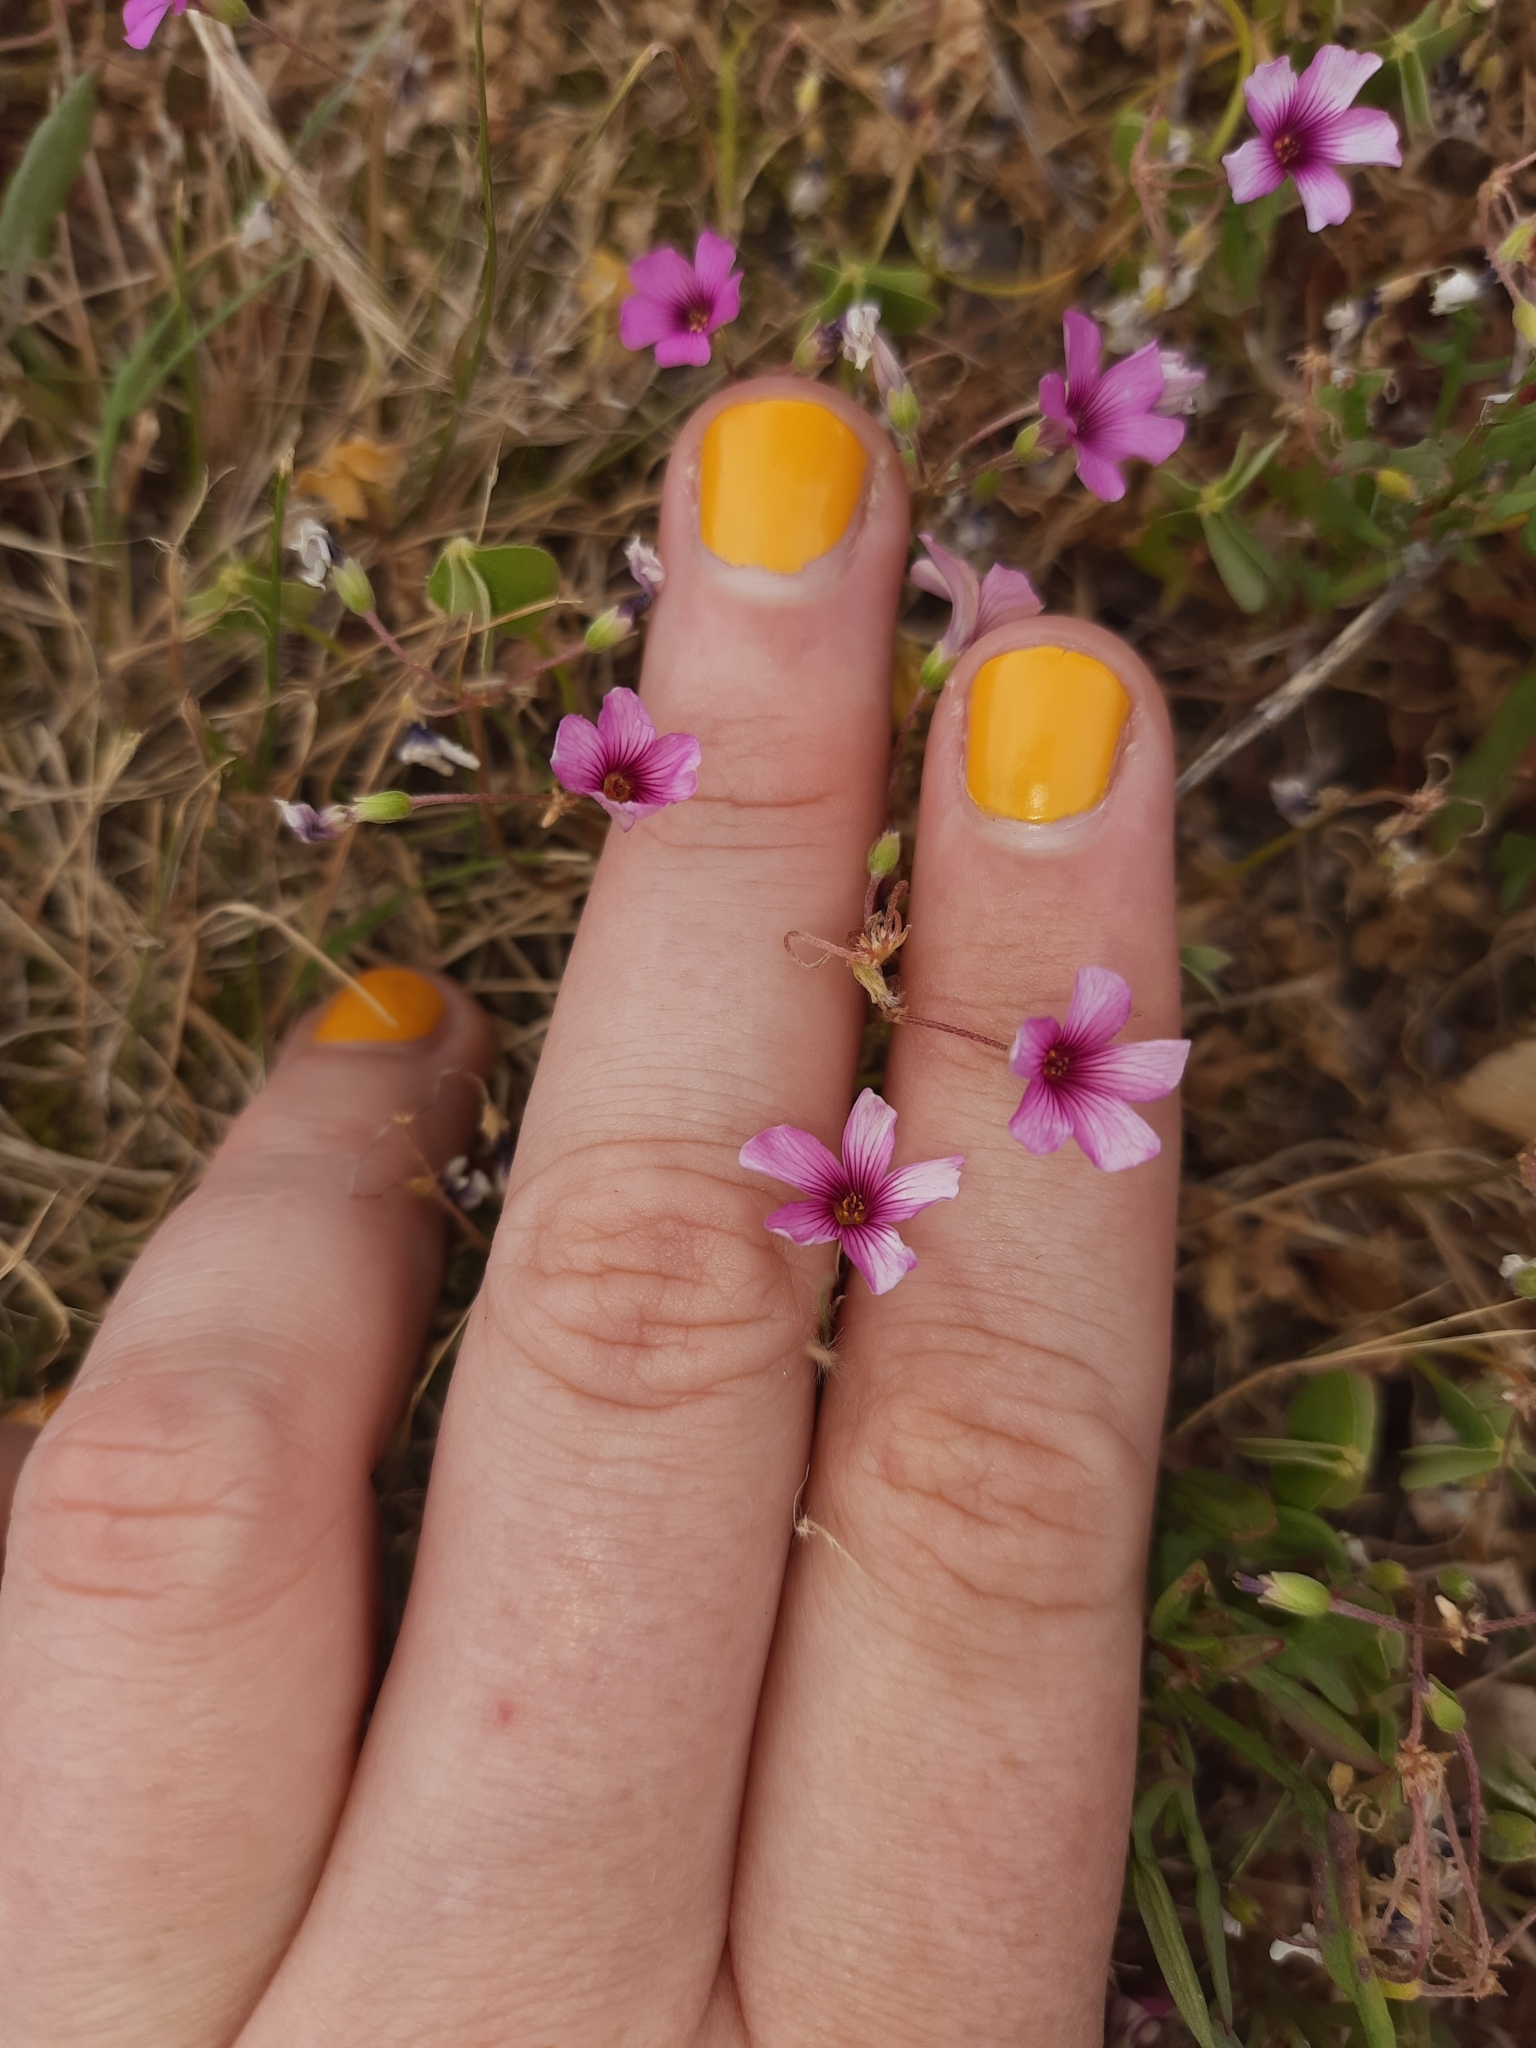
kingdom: Plantae
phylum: Tracheophyta
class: Magnoliopsida
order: Oxalidales
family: Oxalidaceae
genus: Oxalis
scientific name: Oxalis articulata
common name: Pink-sorrel
